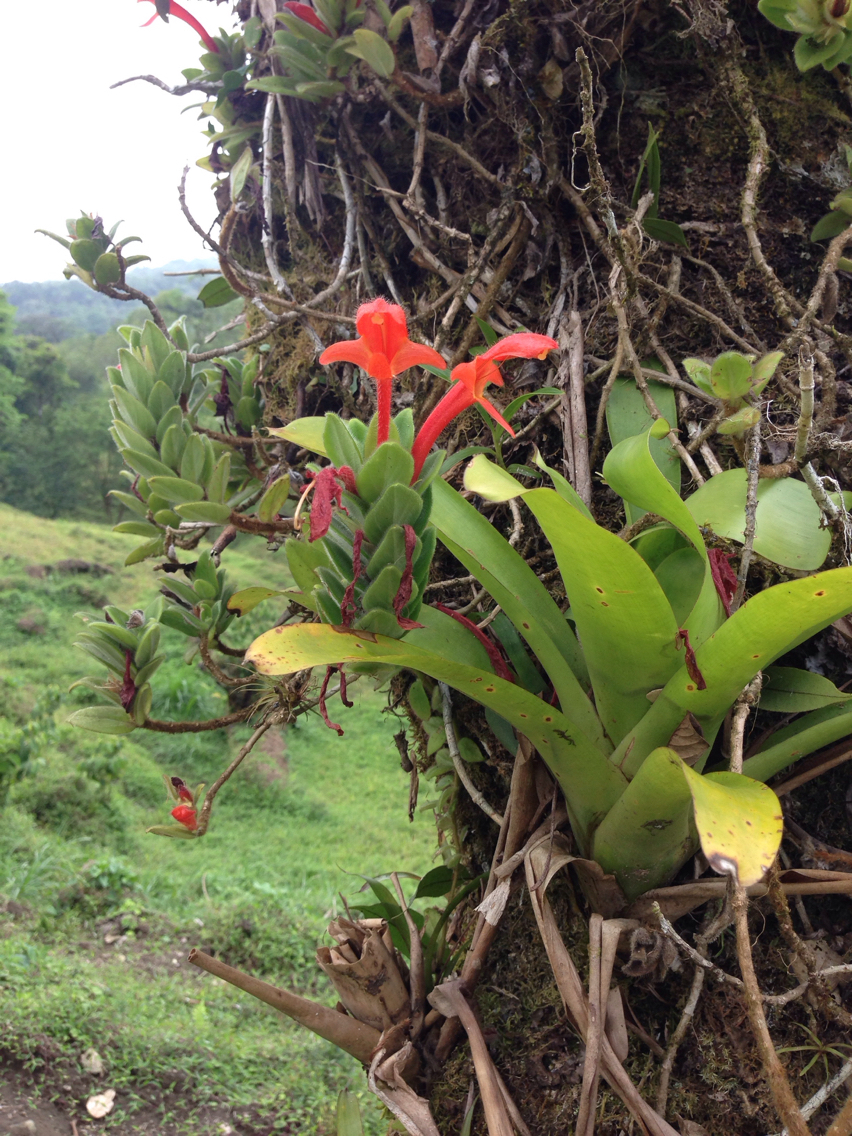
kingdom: Plantae
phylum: Tracheophyta
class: Magnoliopsida
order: Lamiales
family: Gesneriaceae
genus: Columnea
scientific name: Columnea hirta
